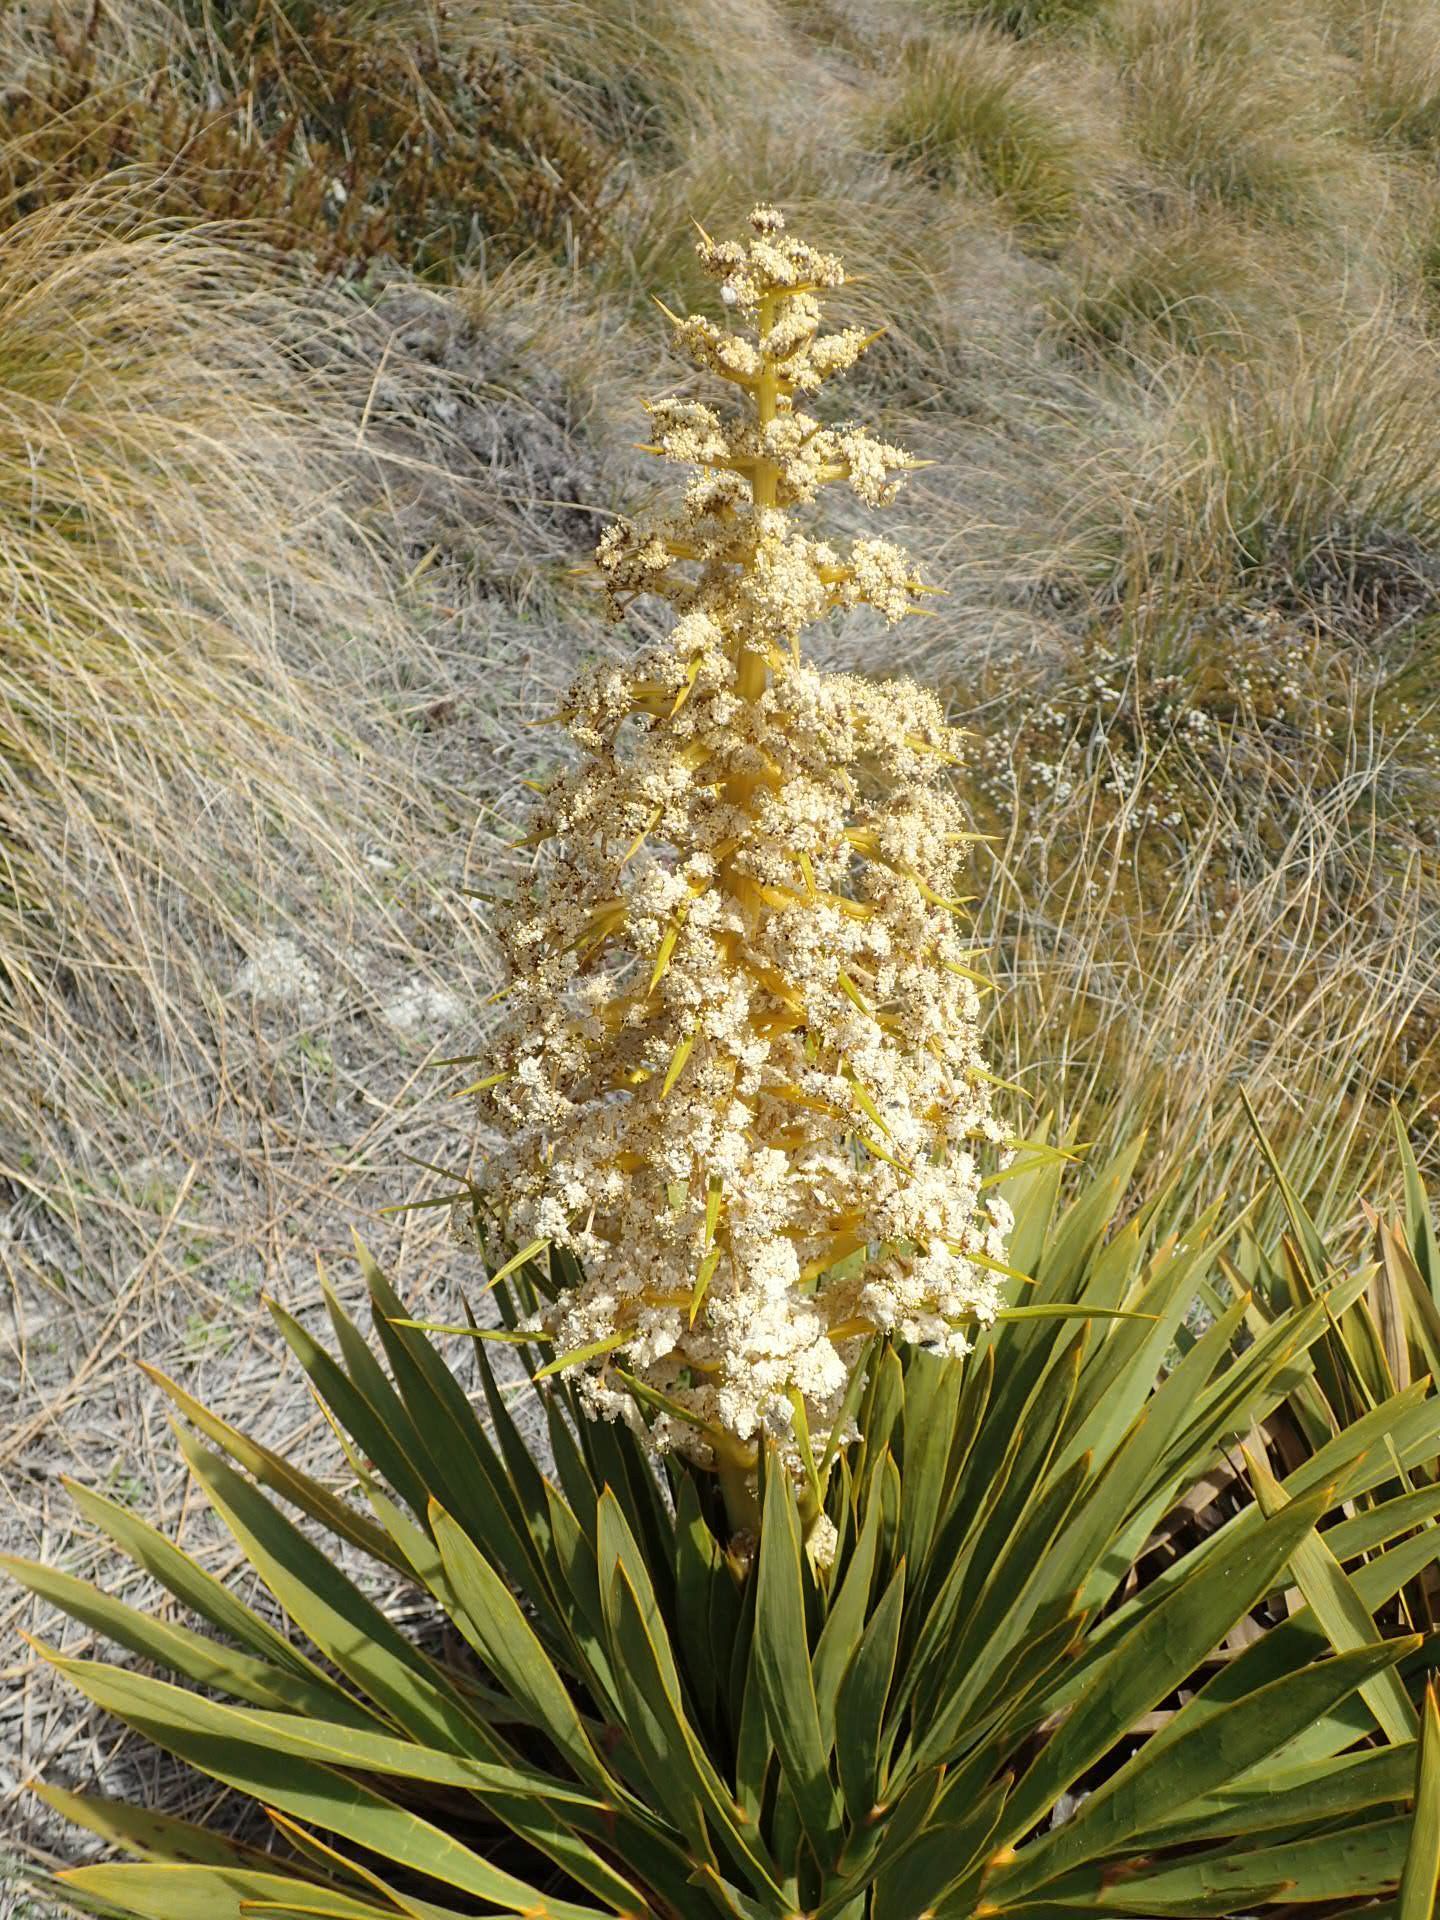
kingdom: Plantae
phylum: Tracheophyta
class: Magnoliopsida
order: Apiales
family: Apiaceae
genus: Aciphylla
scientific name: Aciphylla aurea
